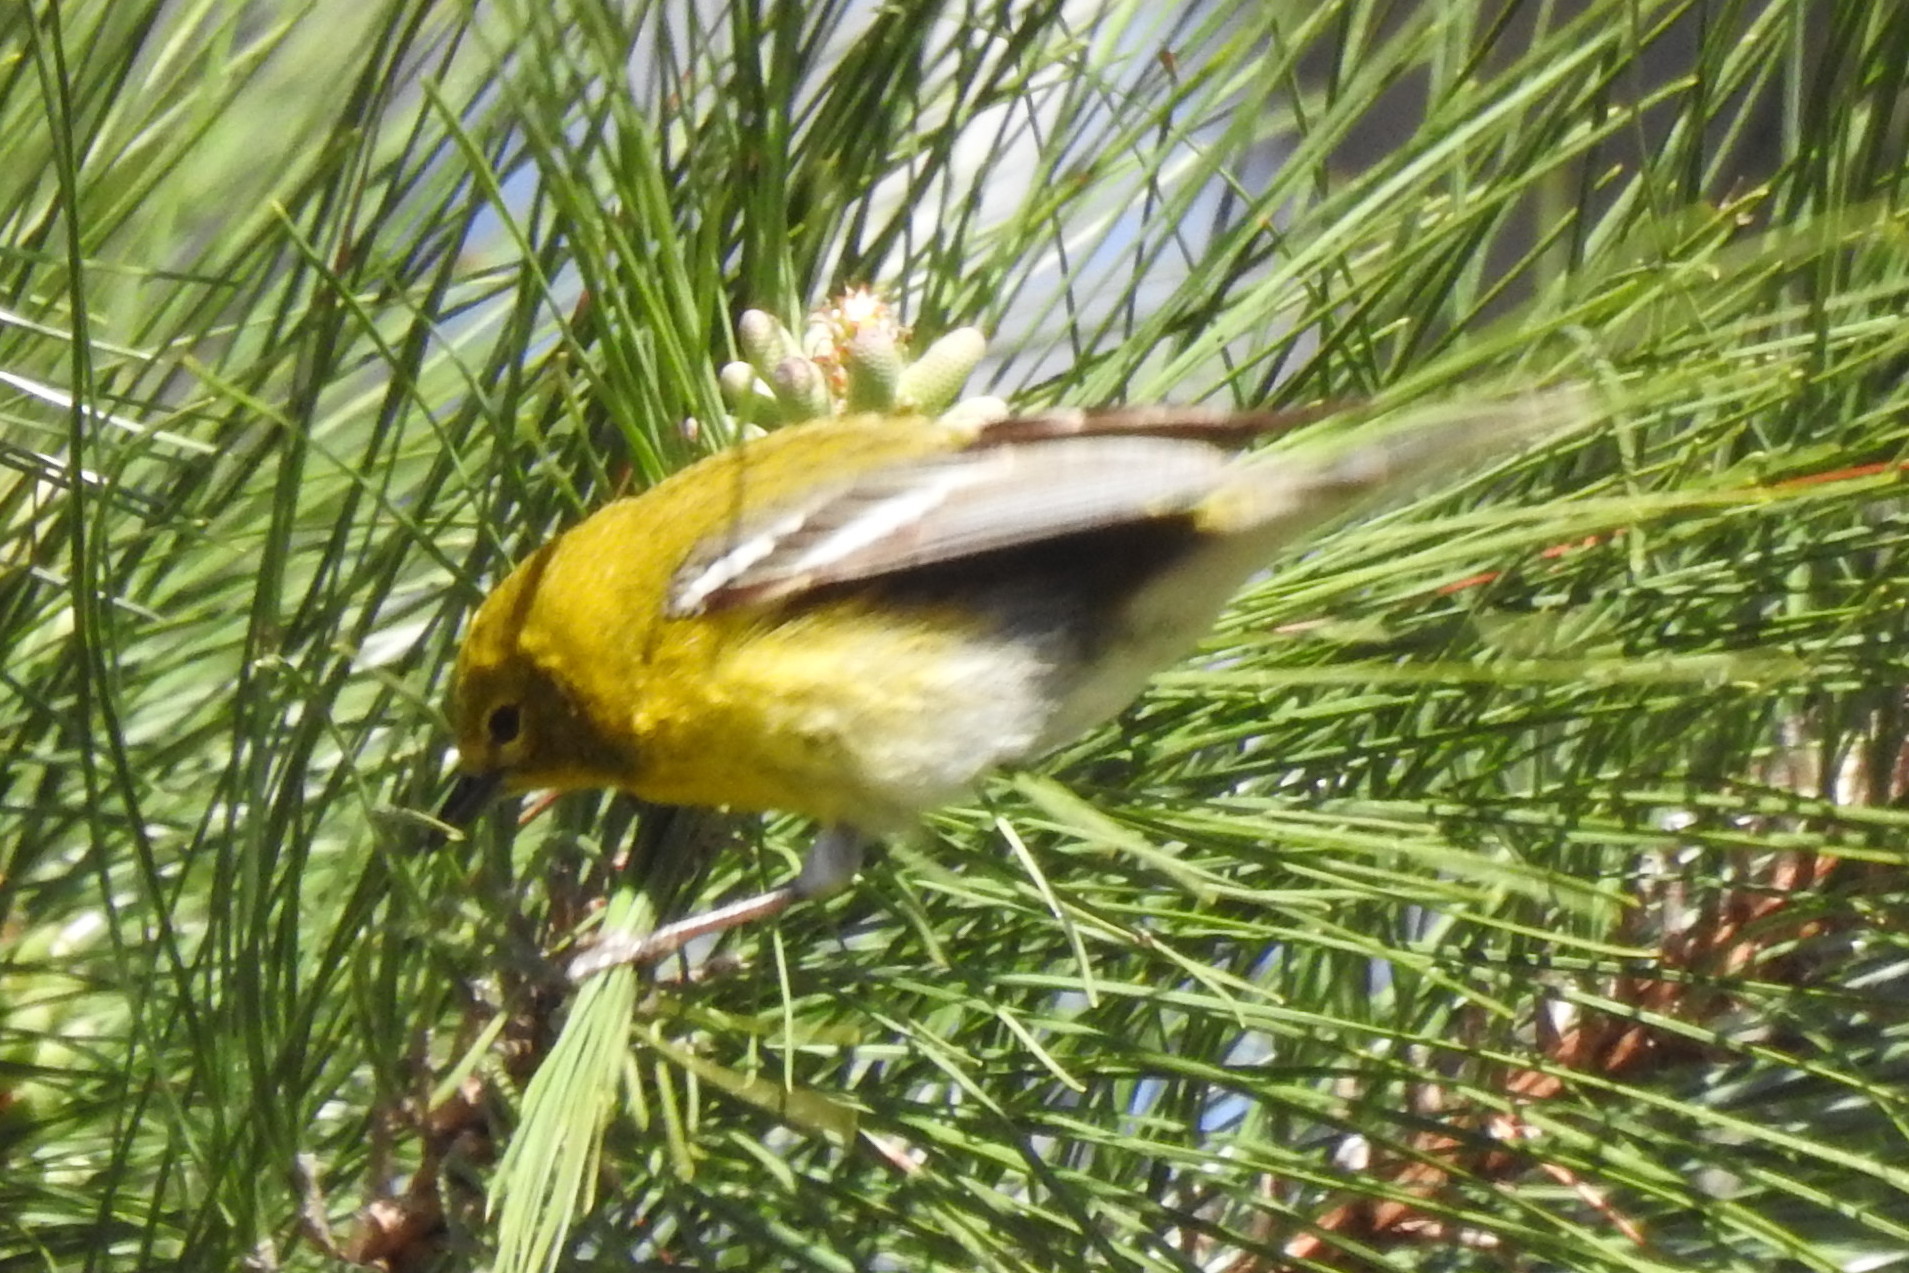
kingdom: Animalia
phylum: Chordata
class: Aves
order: Passeriformes
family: Parulidae
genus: Setophaga
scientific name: Setophaga pinus
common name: Pine warbler
